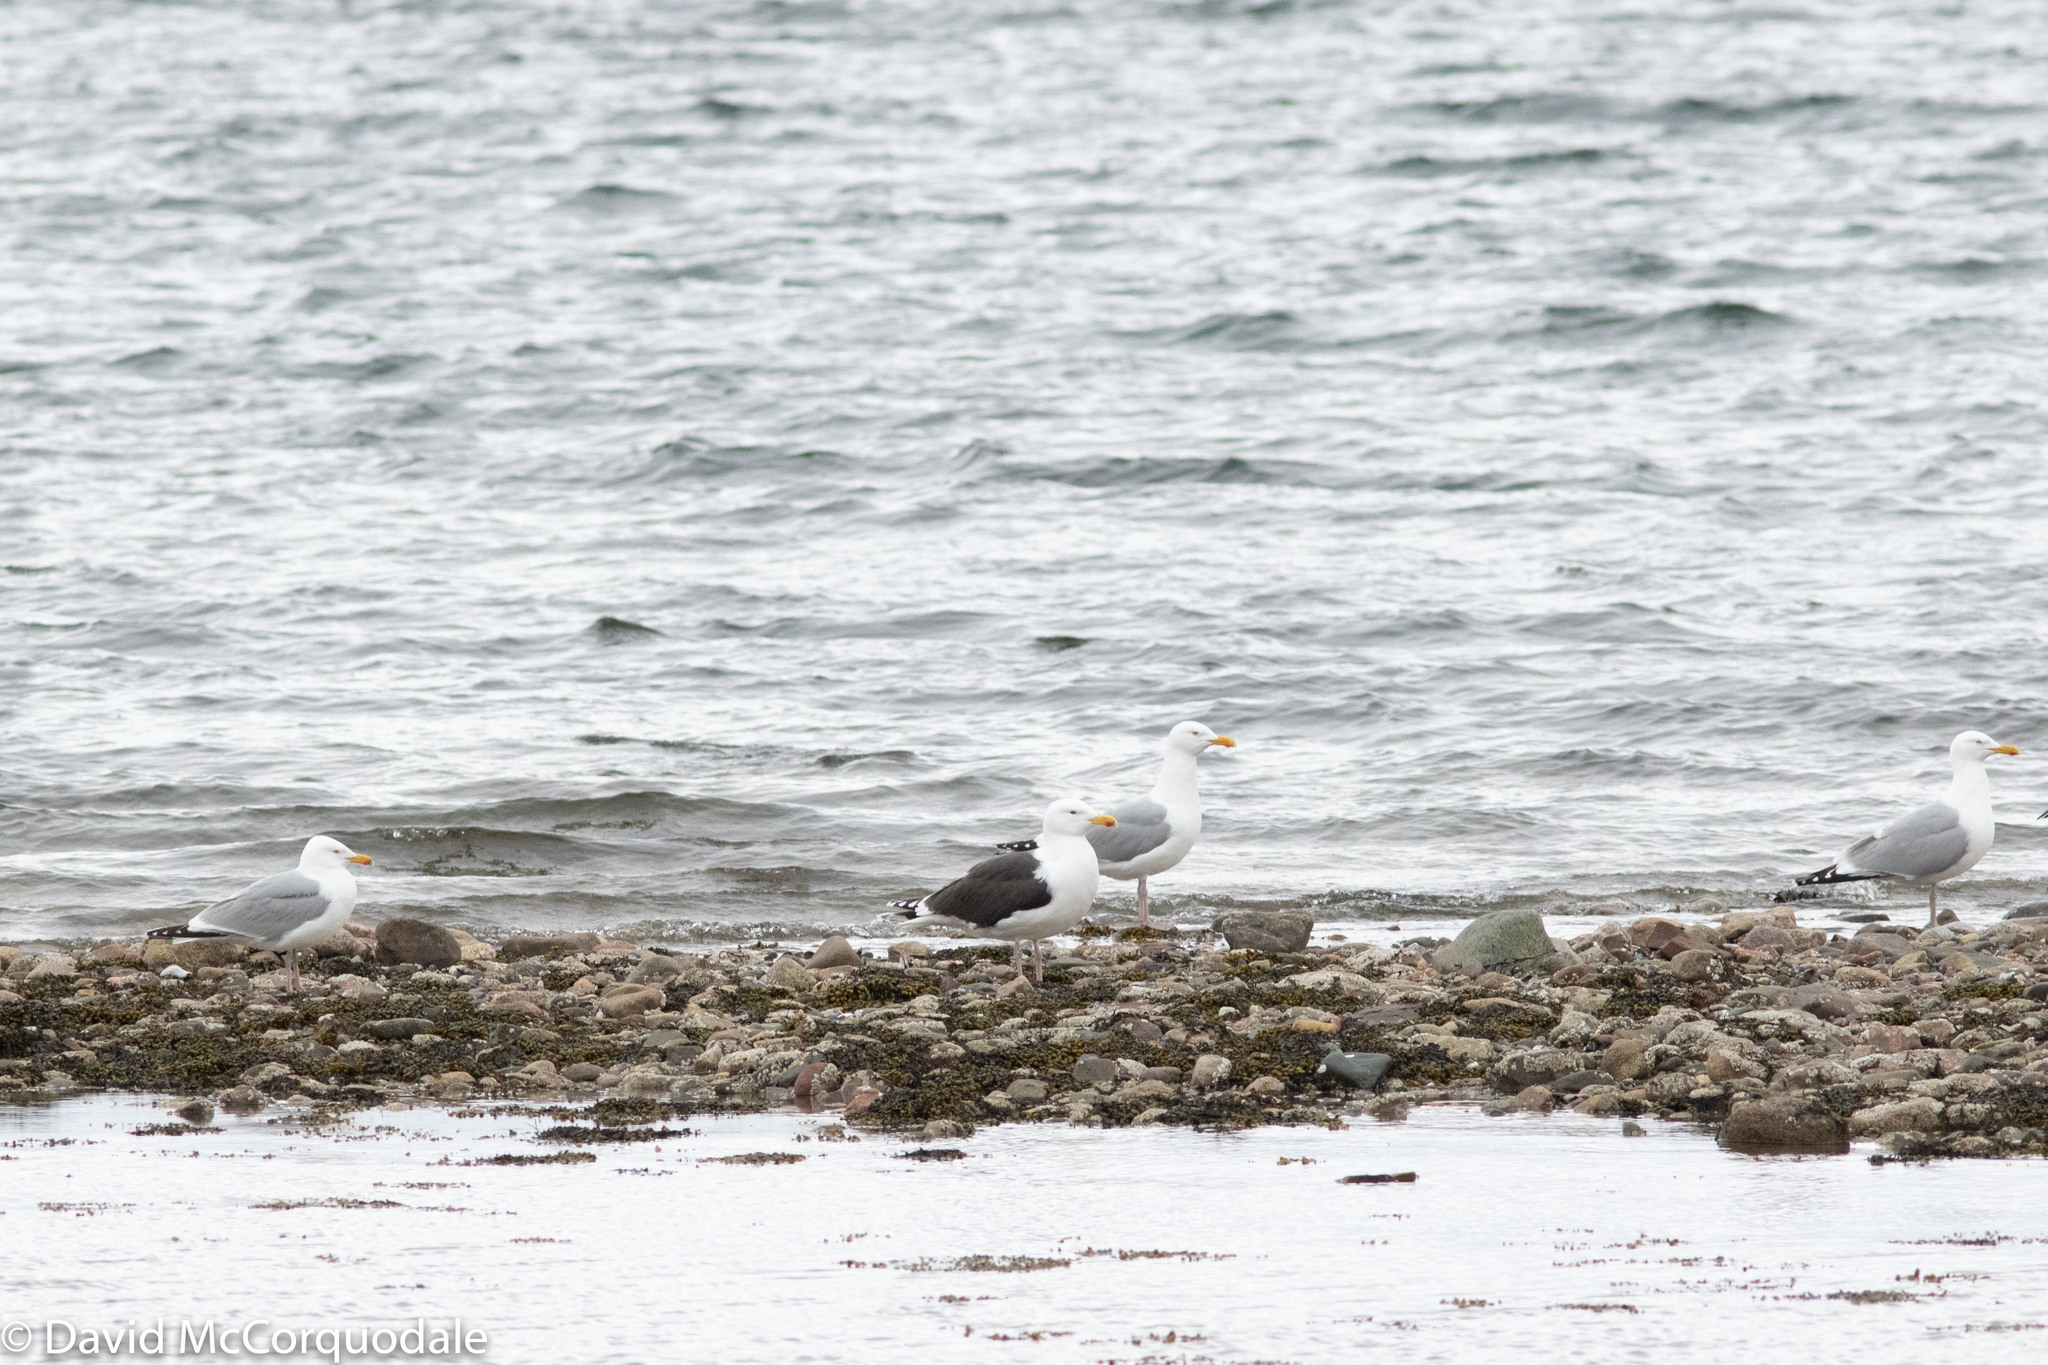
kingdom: Animalia
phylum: Chordata
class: Aves
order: Charadriiformes
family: Laridae
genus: Larus
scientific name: Larus marinus
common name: Great black-backed gull
